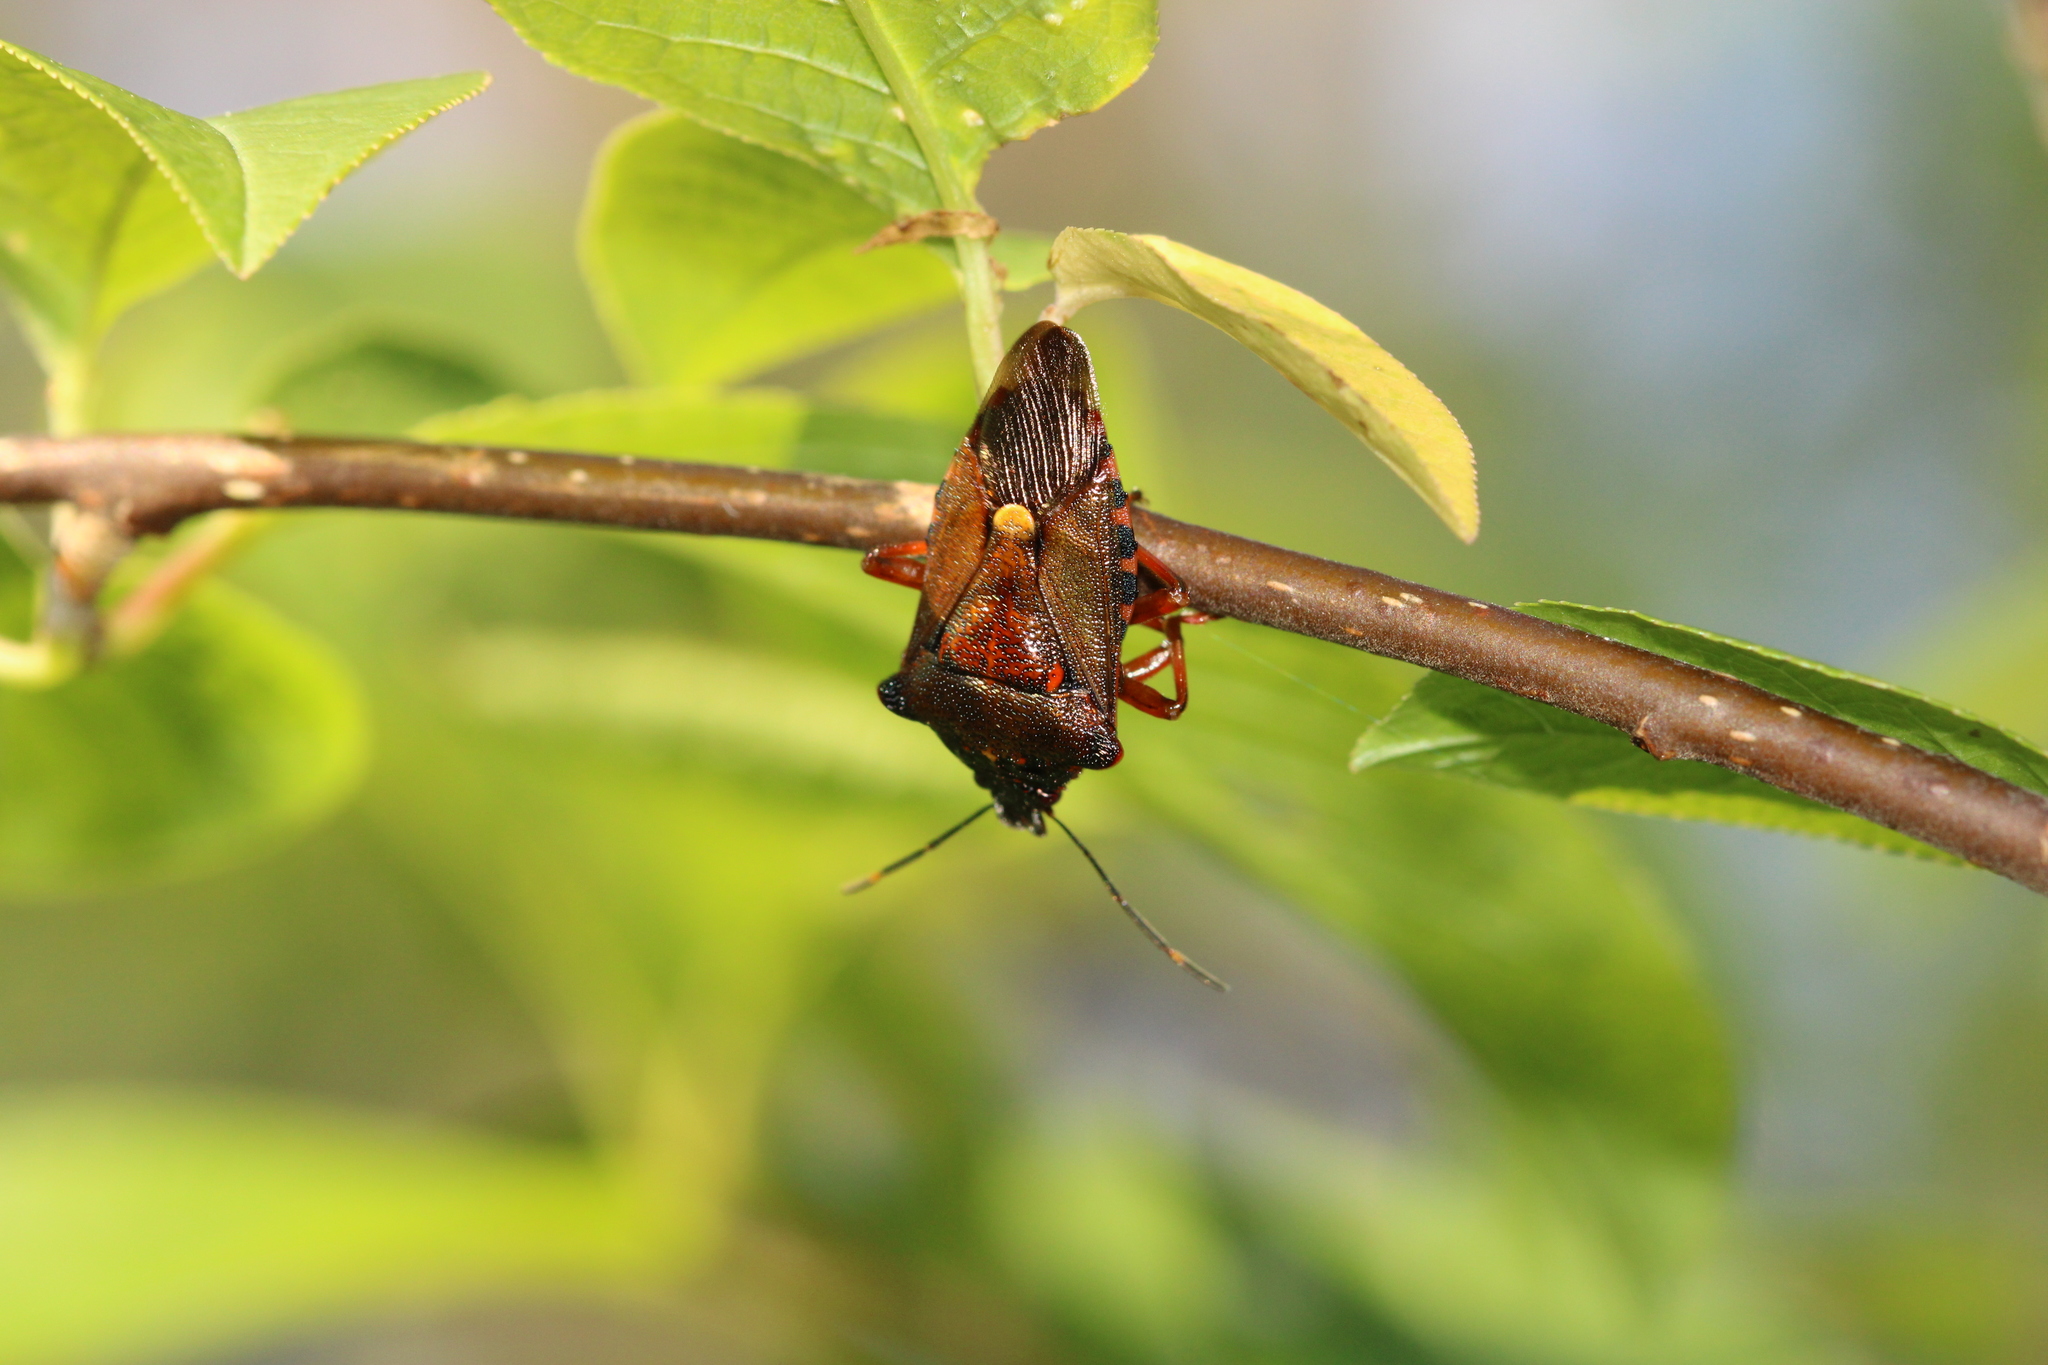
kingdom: Animalia
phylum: Arthropoda
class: Insecta
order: Hemiptera
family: Pentatomidae
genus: Pinthaeus
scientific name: Pinthaeus sanguinipes
